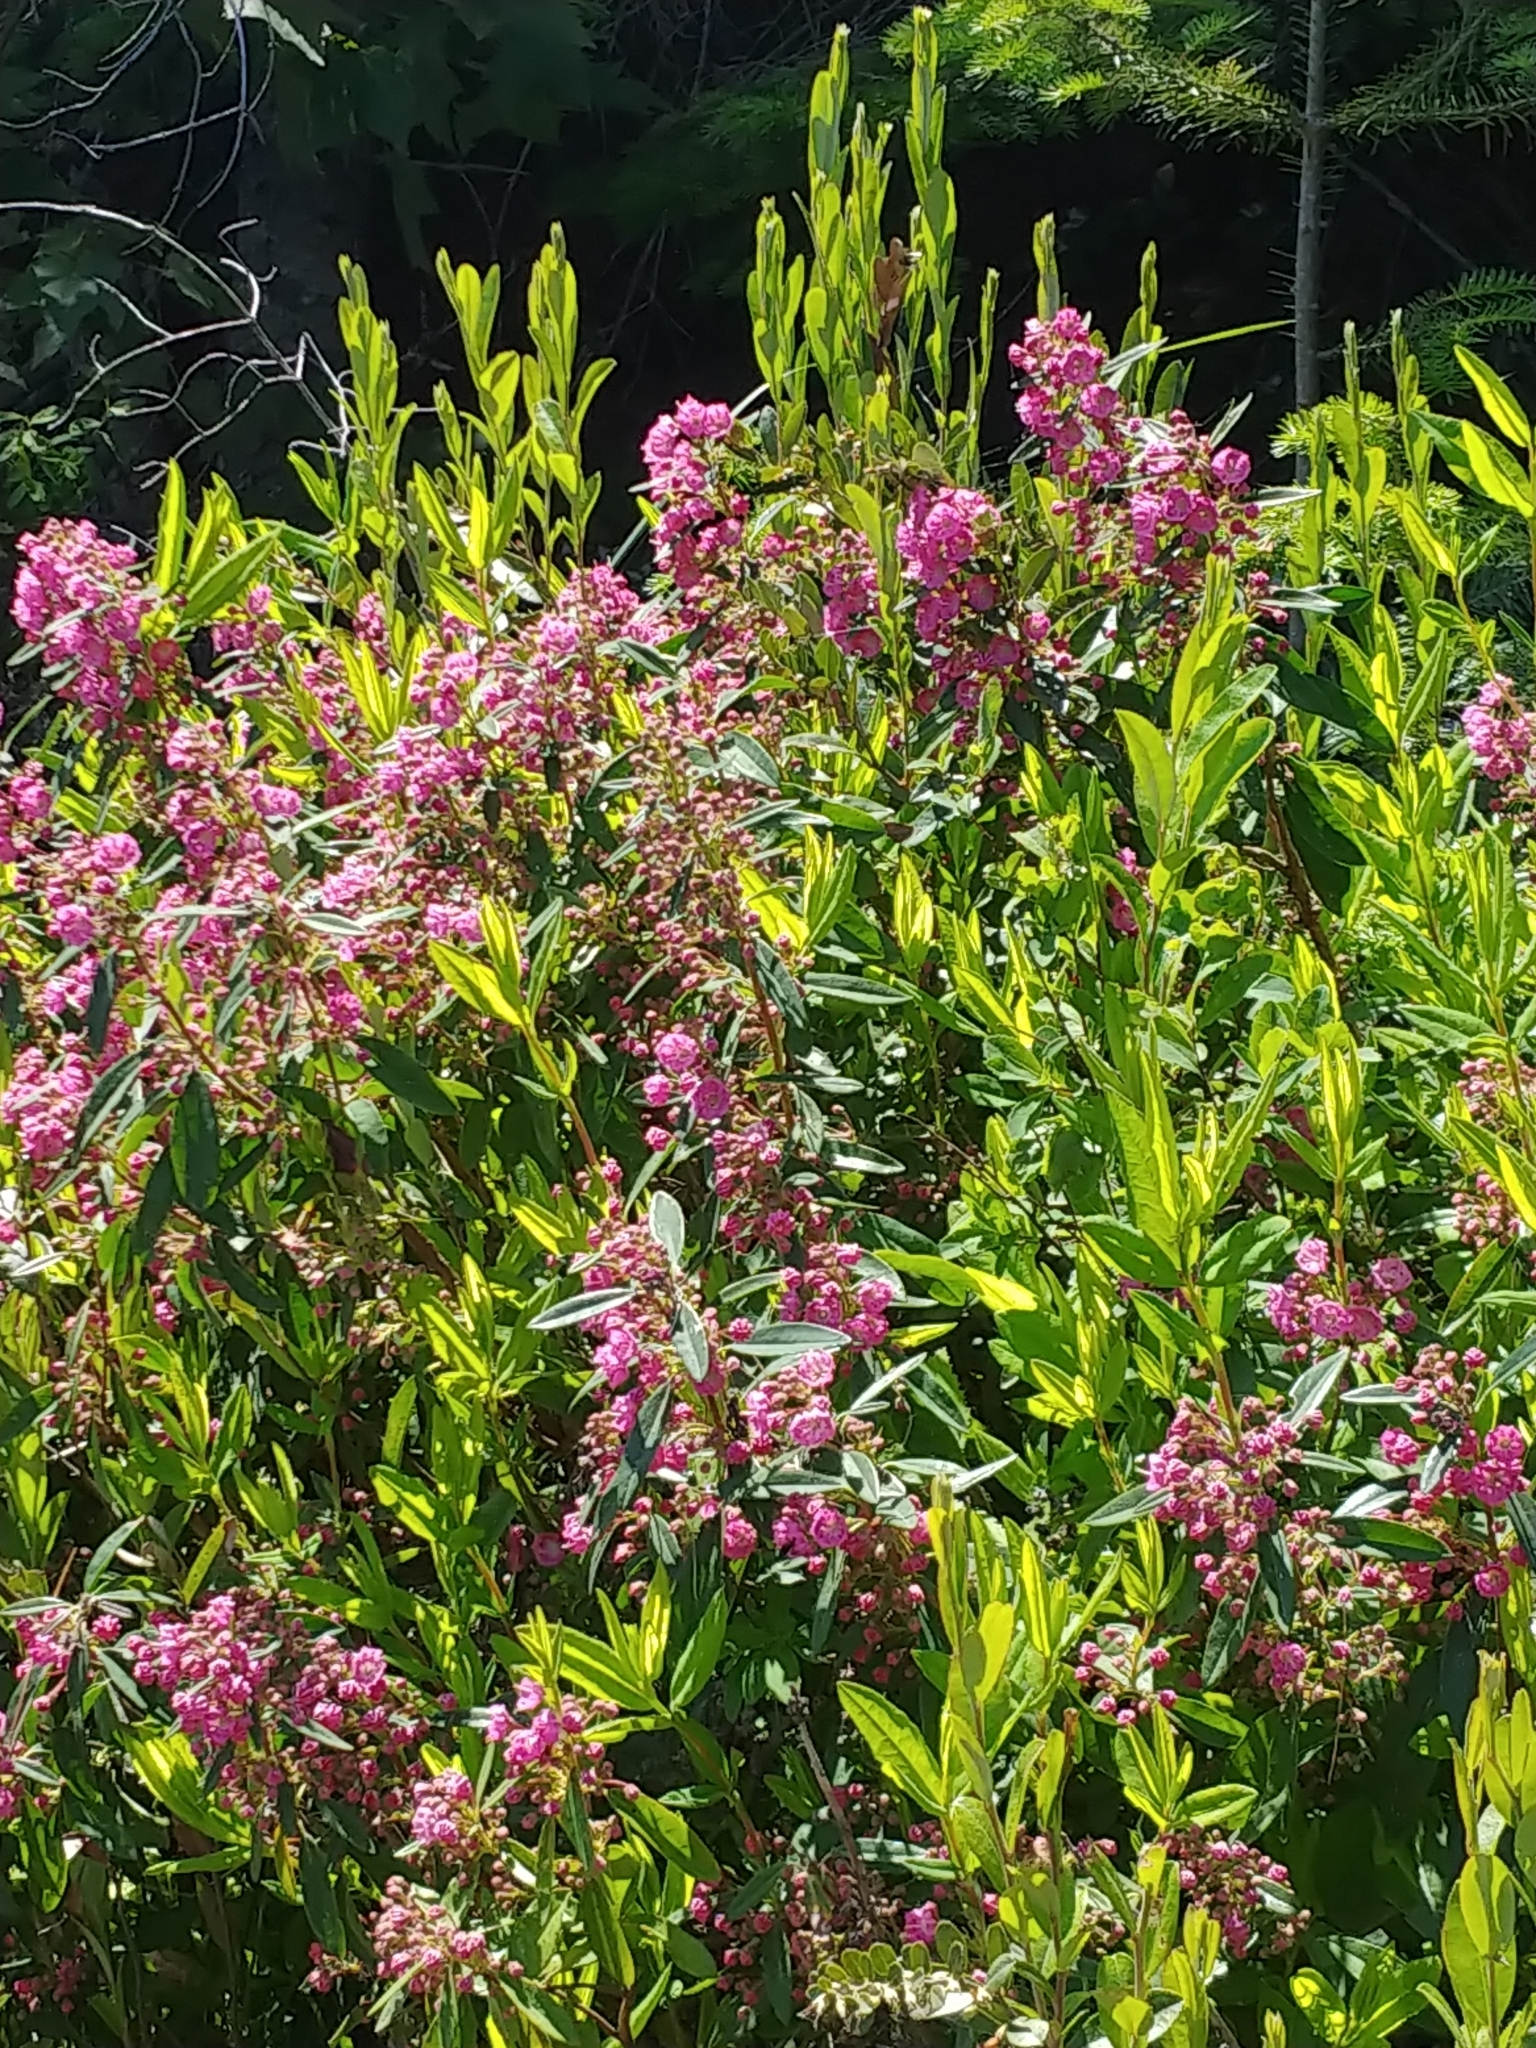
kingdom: Plantae
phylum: Tracheophyta
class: Magnoliopsida
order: Ericales
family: Ericaceae
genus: Kalmia
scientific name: Kalmia angustifolia
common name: Sheep-laurel
